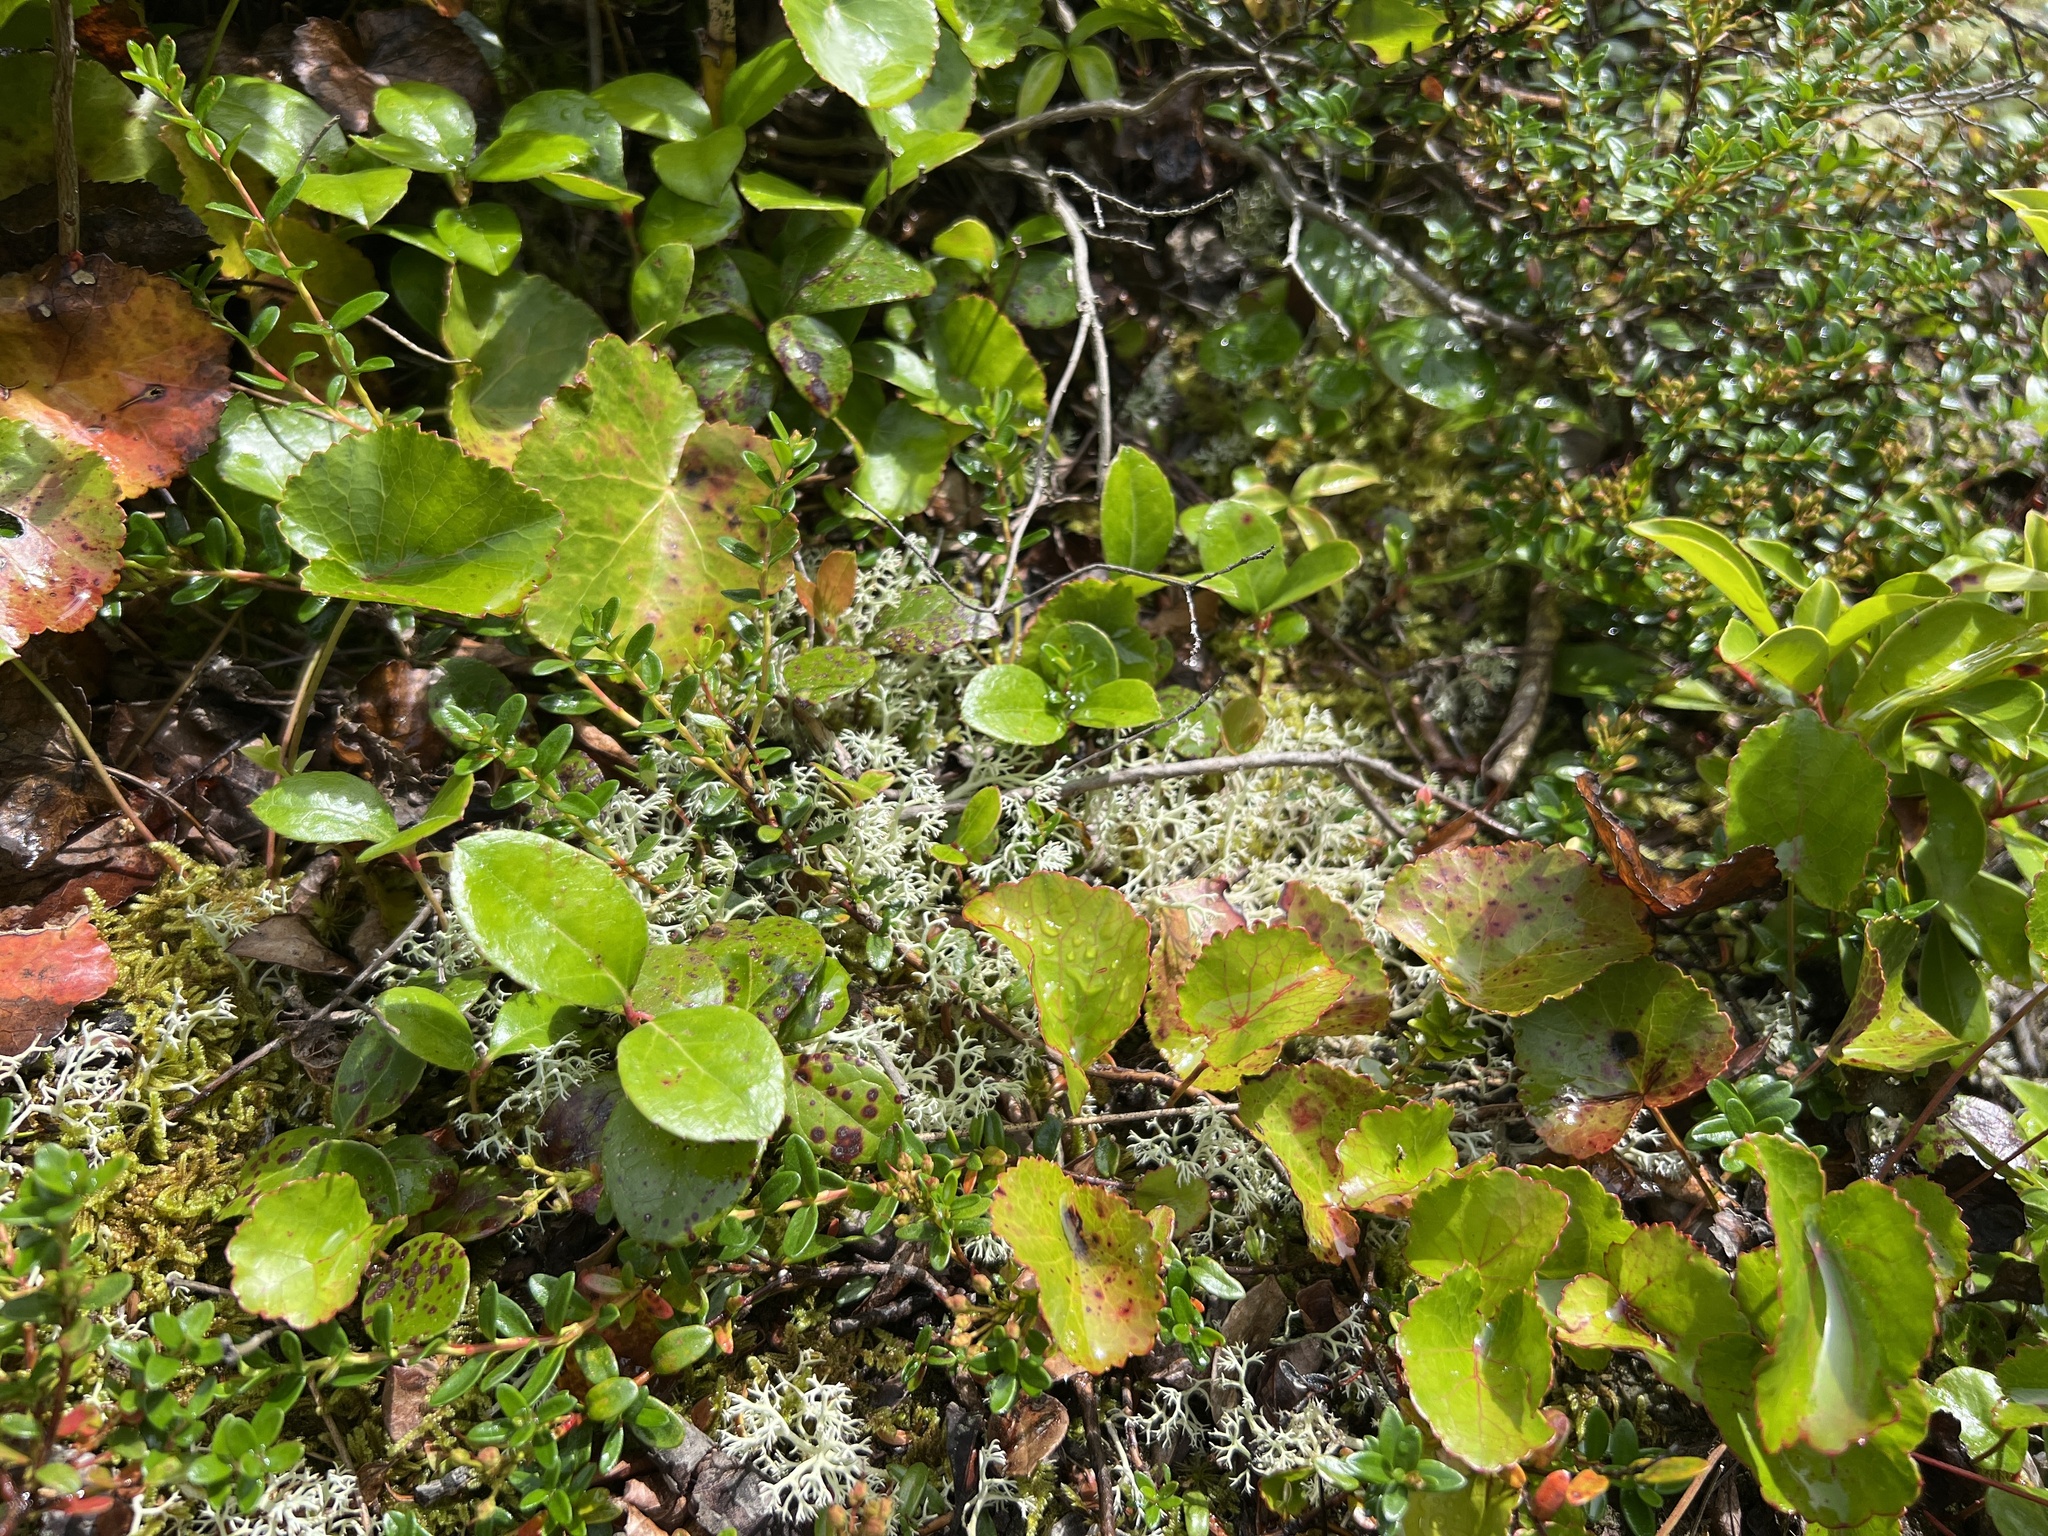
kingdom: Plantae
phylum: Tracheophyta
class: Magnoliopsida
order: Ericales
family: Ericaceae
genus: Gaultheria
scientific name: Gaultheria procumbens
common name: Checkerberry
